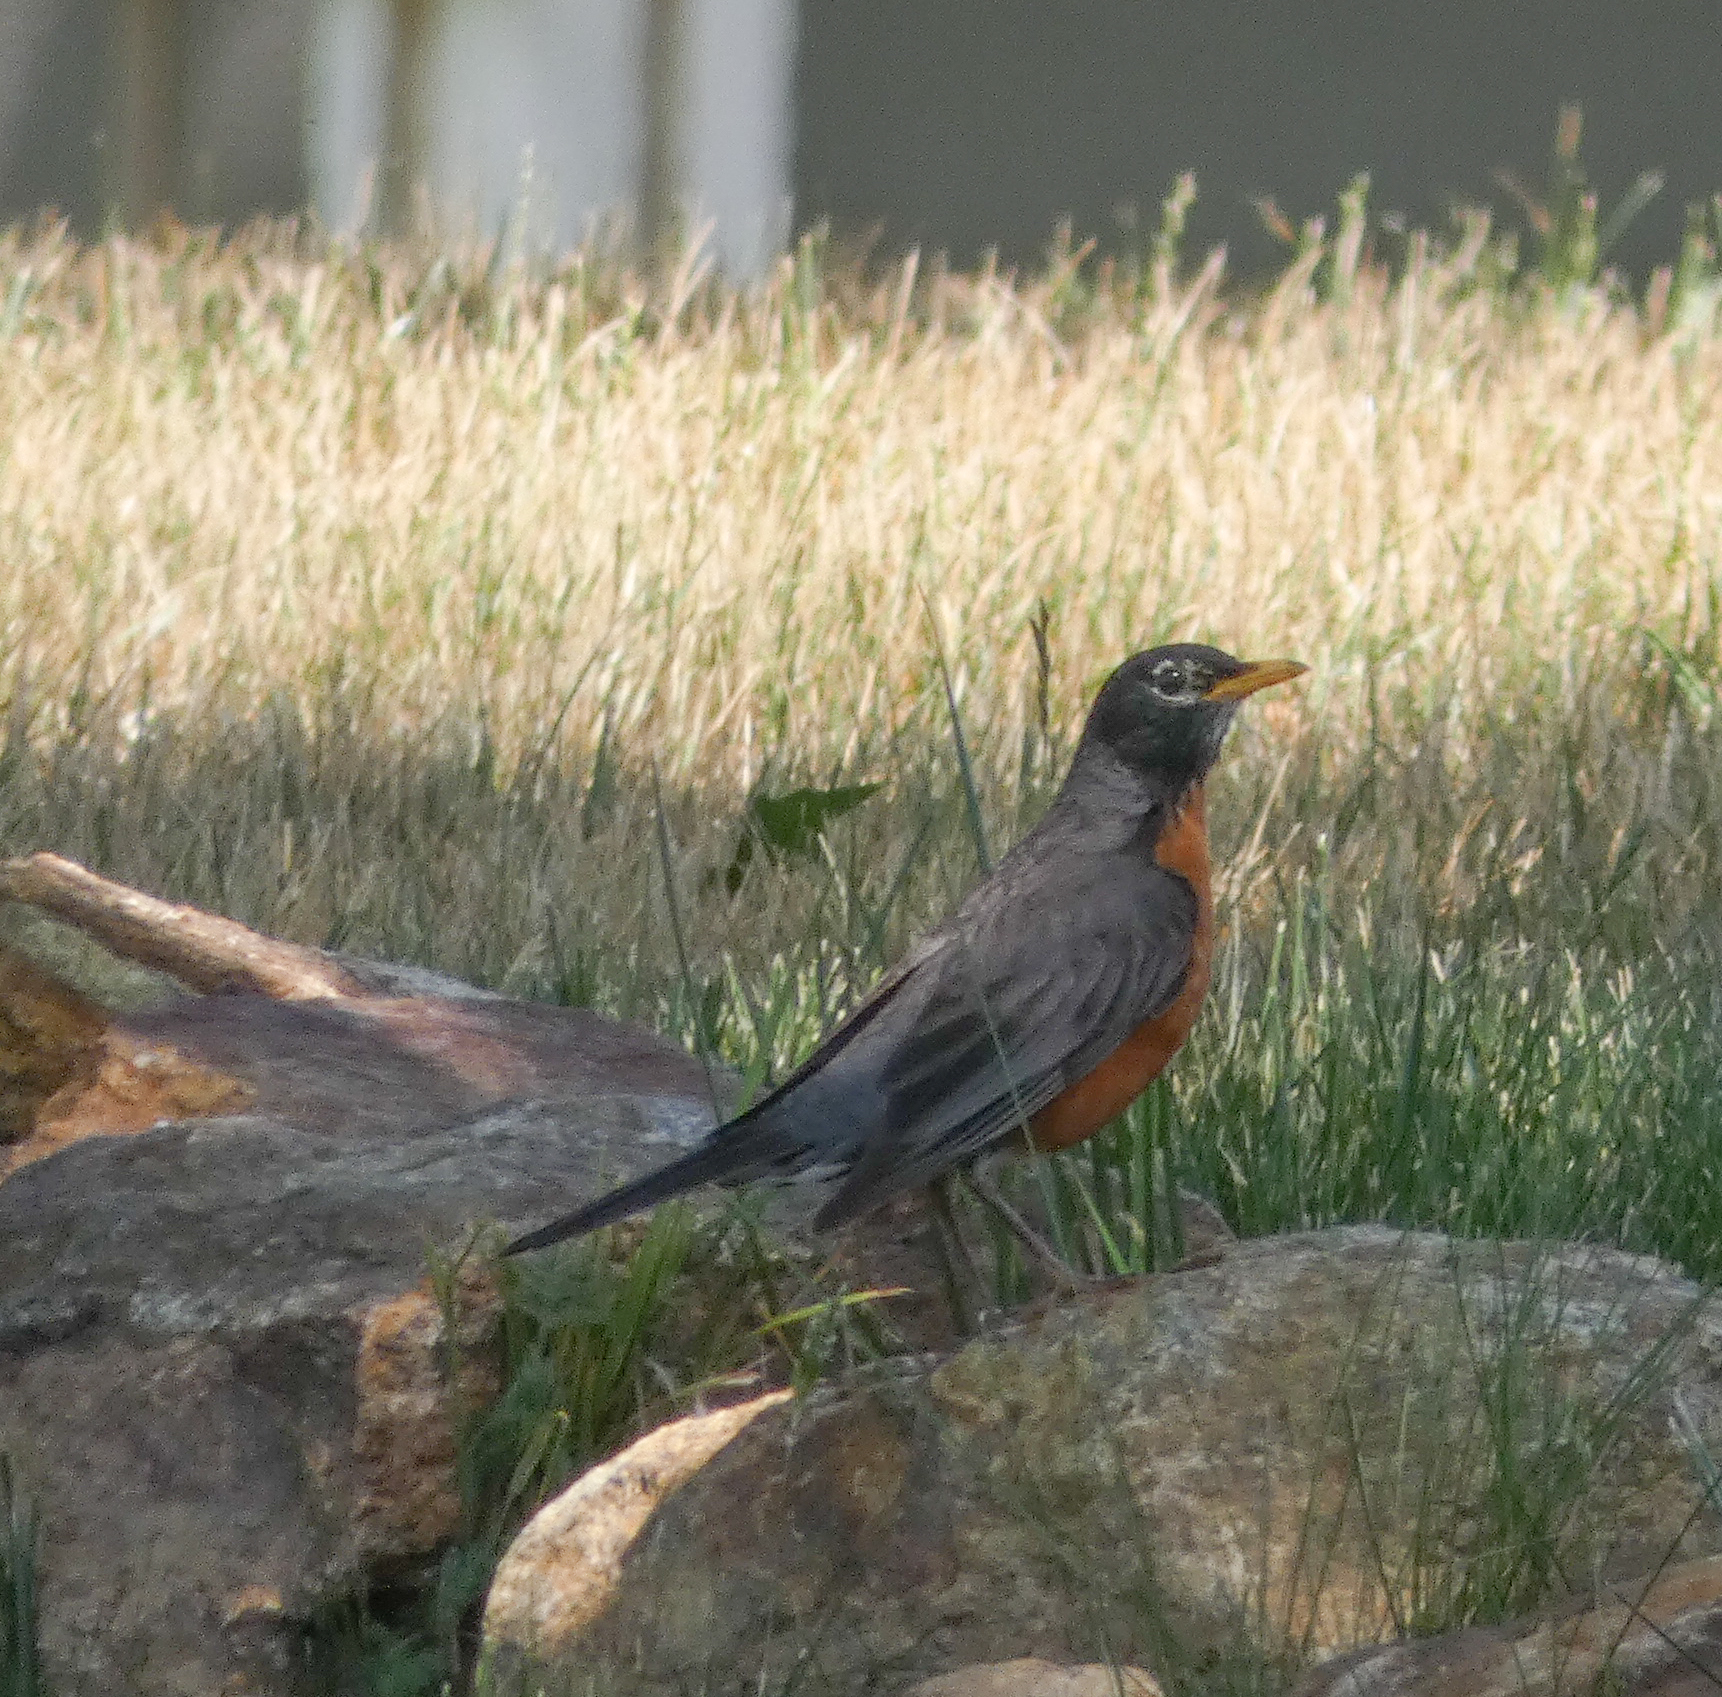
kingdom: Animalia
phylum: Chordata
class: Aves
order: Passeriformes
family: Turdidae
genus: Turdus
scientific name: Turdus migratorius
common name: American robin
